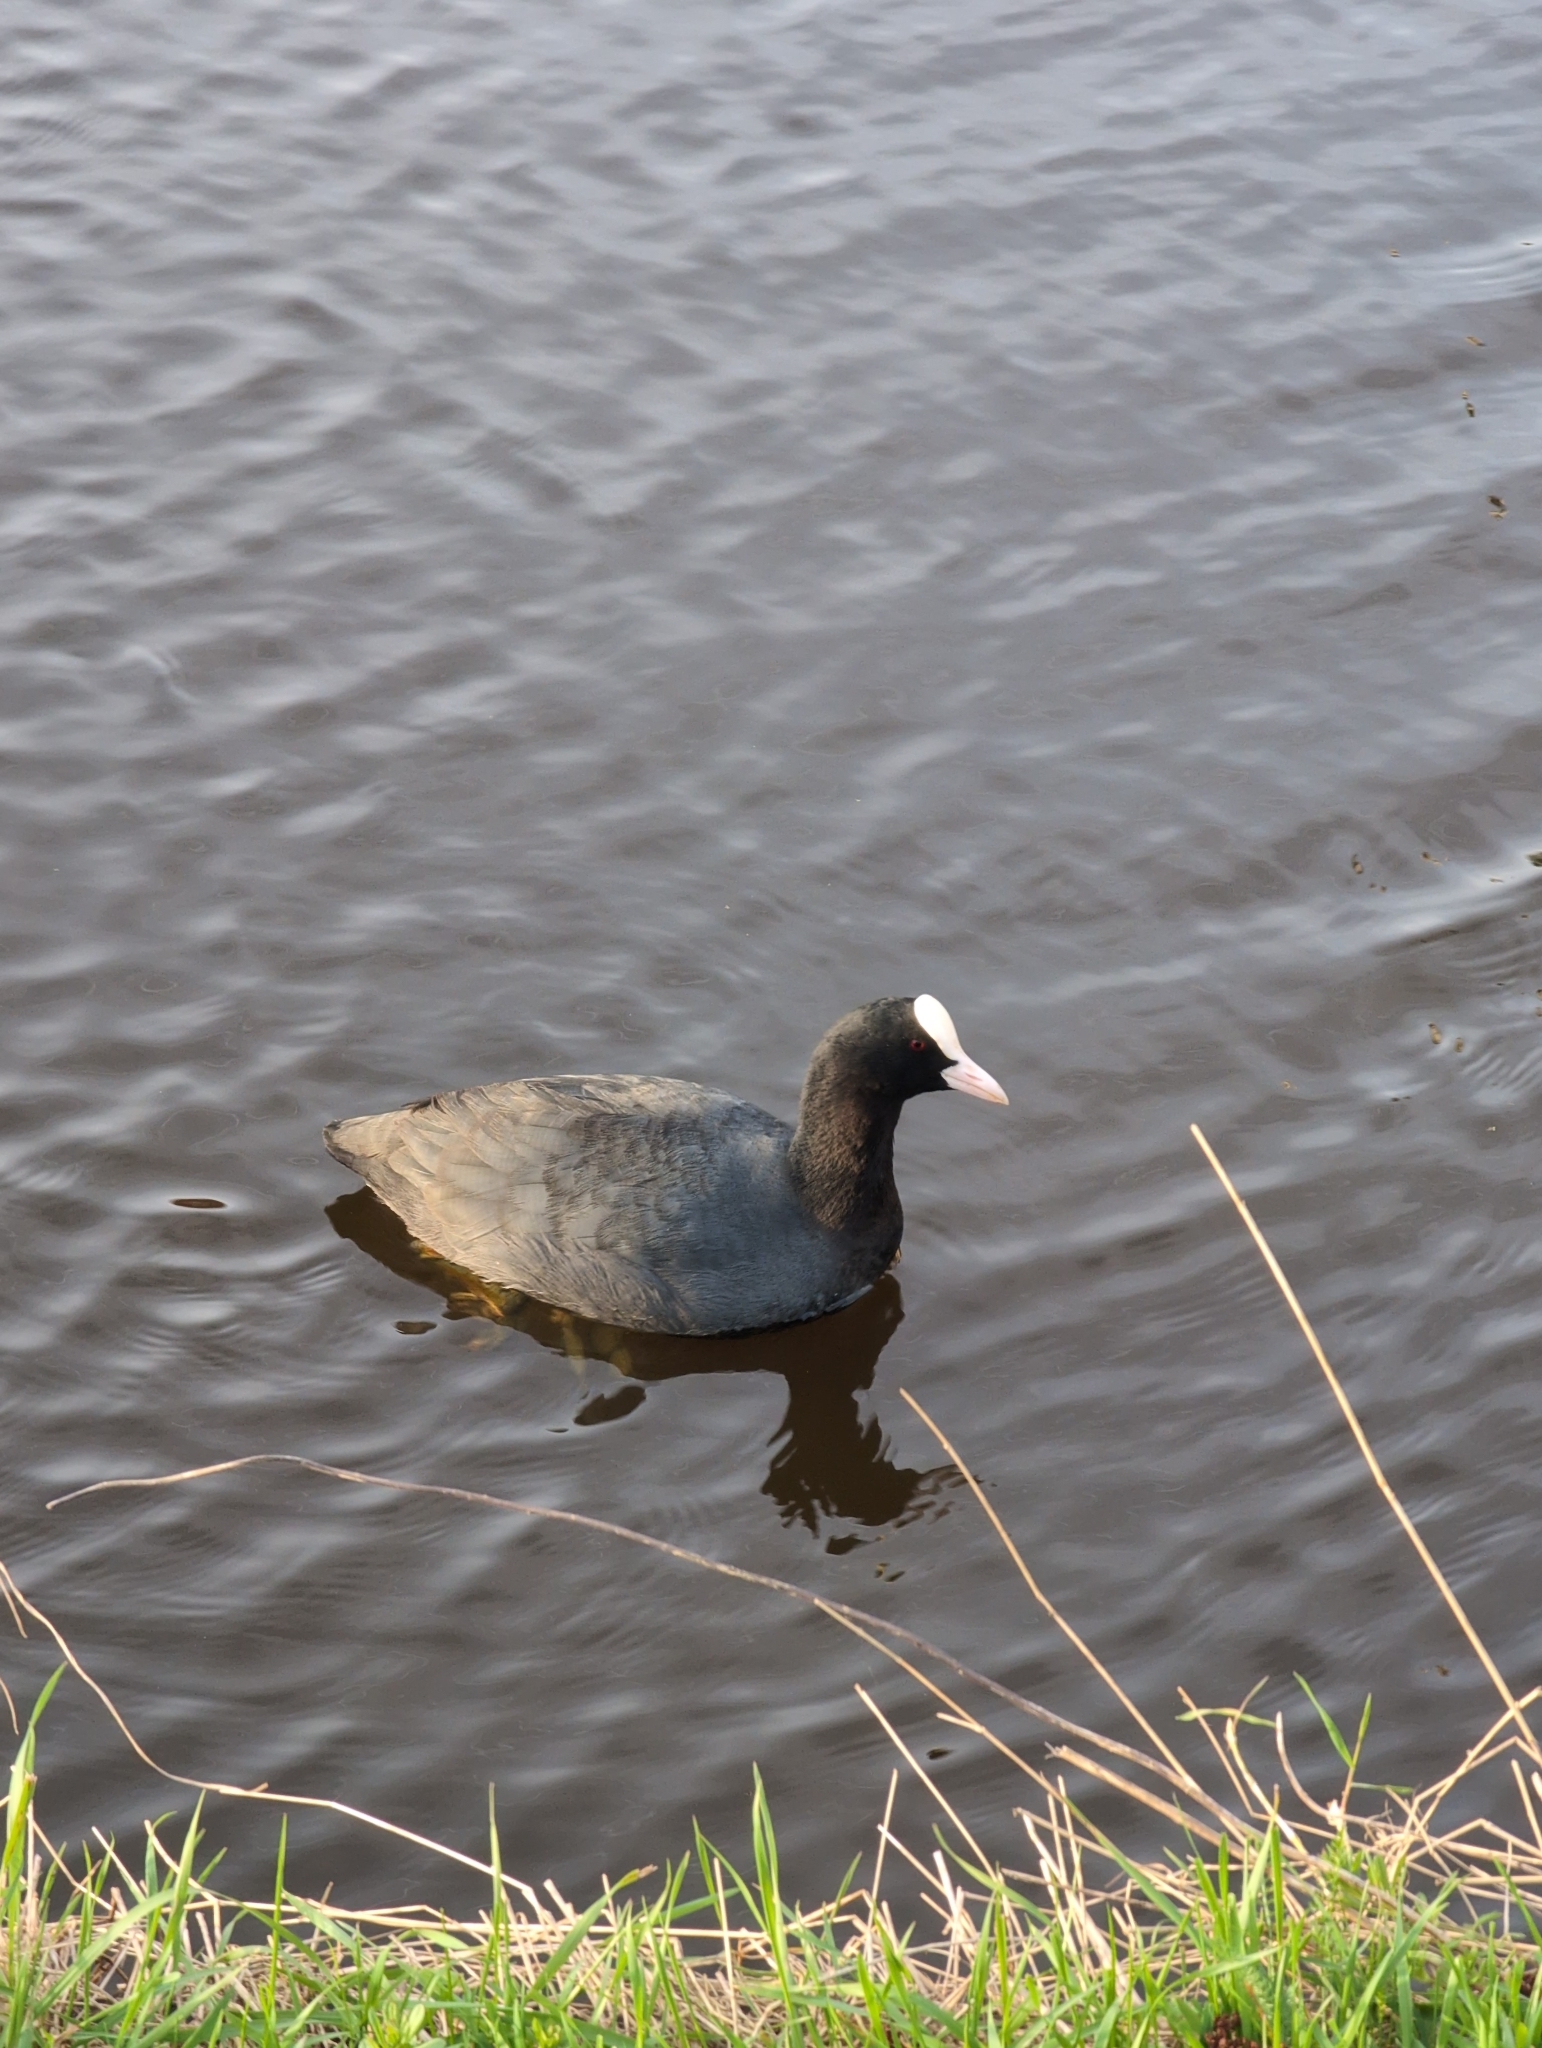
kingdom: Animalia
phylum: Chordata
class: Aves
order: Gruiformes
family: Rallidae
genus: Fulica
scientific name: Fulica atra
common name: Eurasian coot
